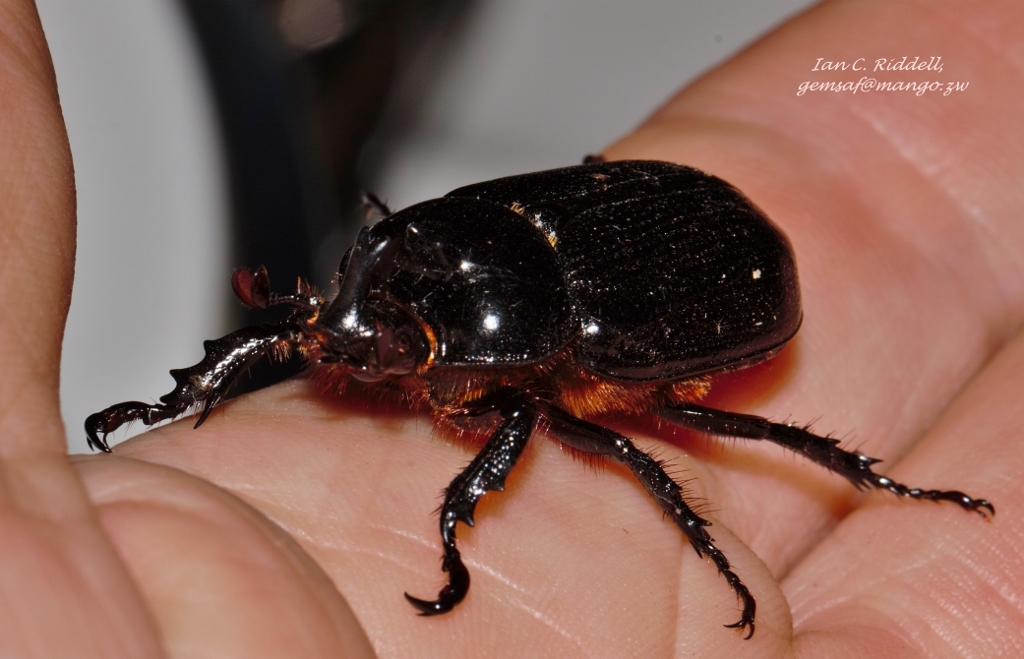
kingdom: Animalia
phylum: Arthropoda
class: Insecta
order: Coleoptera
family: Scarabaeidae
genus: Cyphonistes
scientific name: Cyphonistes vallatus
